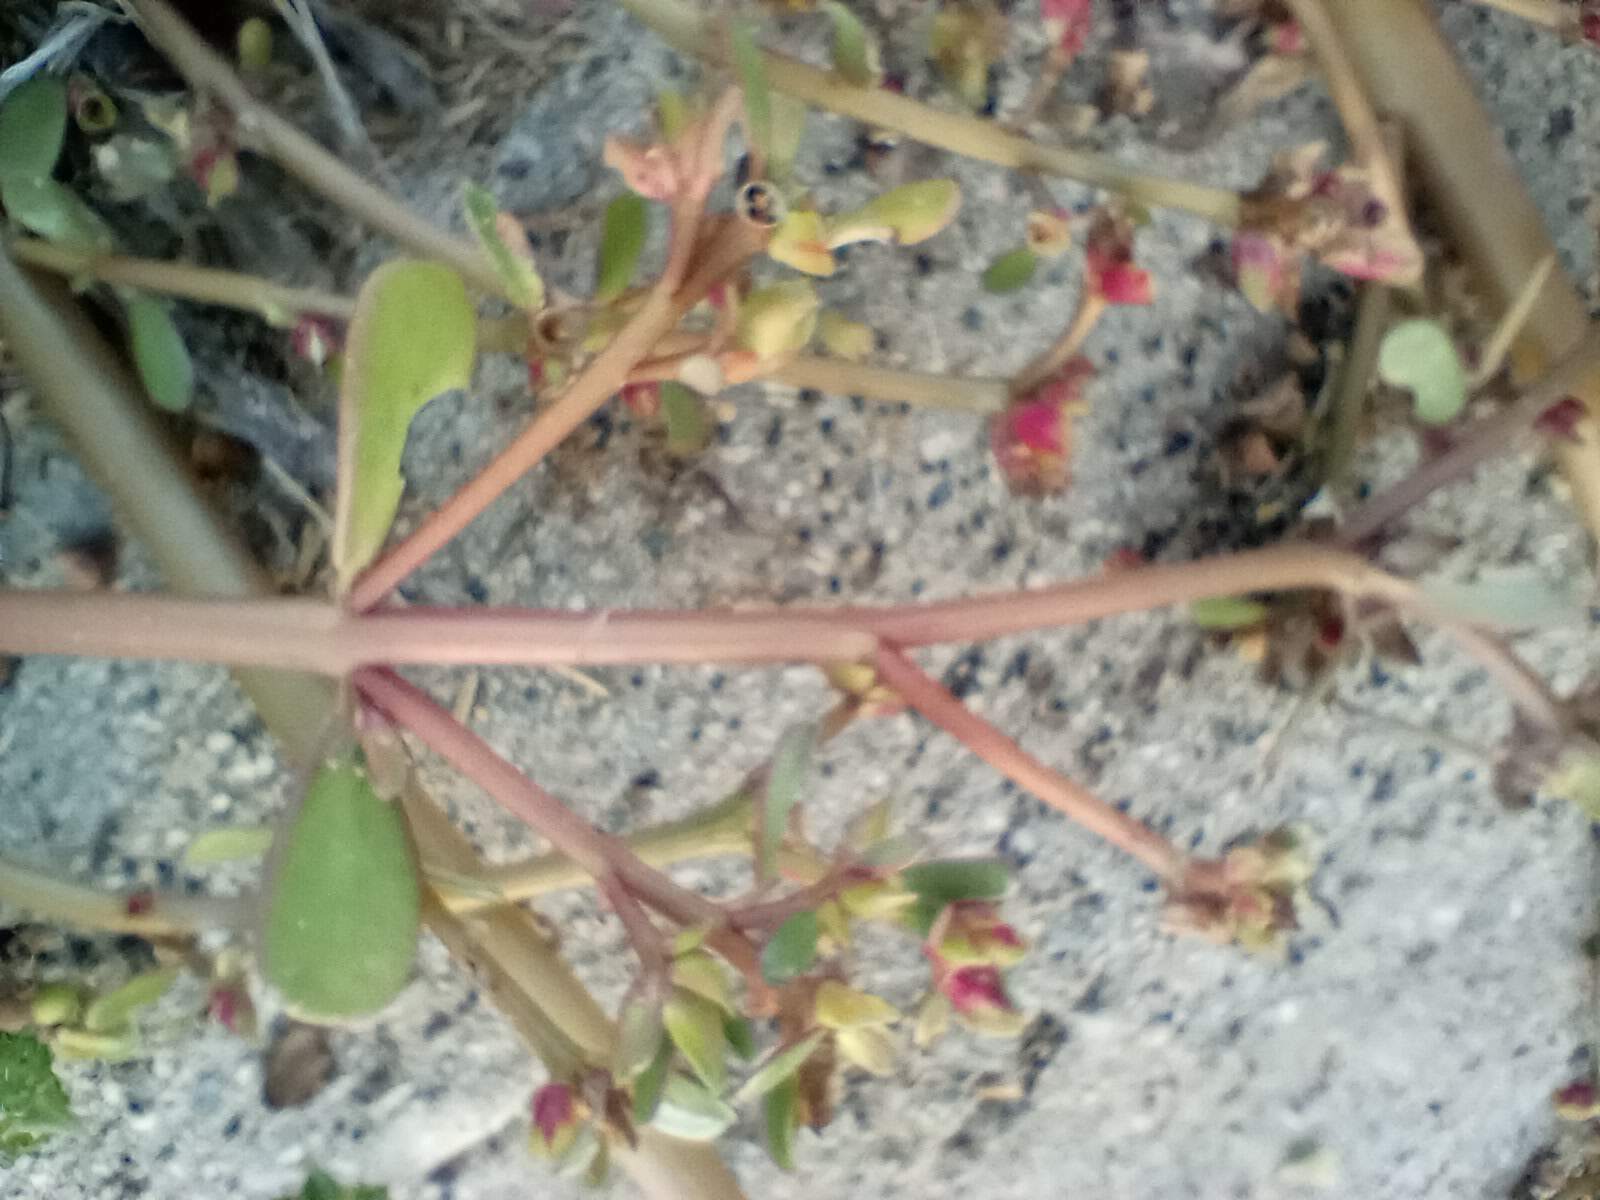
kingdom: Plantae
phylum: Tracheophyta
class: Magnoliopsida
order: Caryophyllales
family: Portulacaceae
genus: Portulaca
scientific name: Portulaca oleracea
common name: Common purslane
